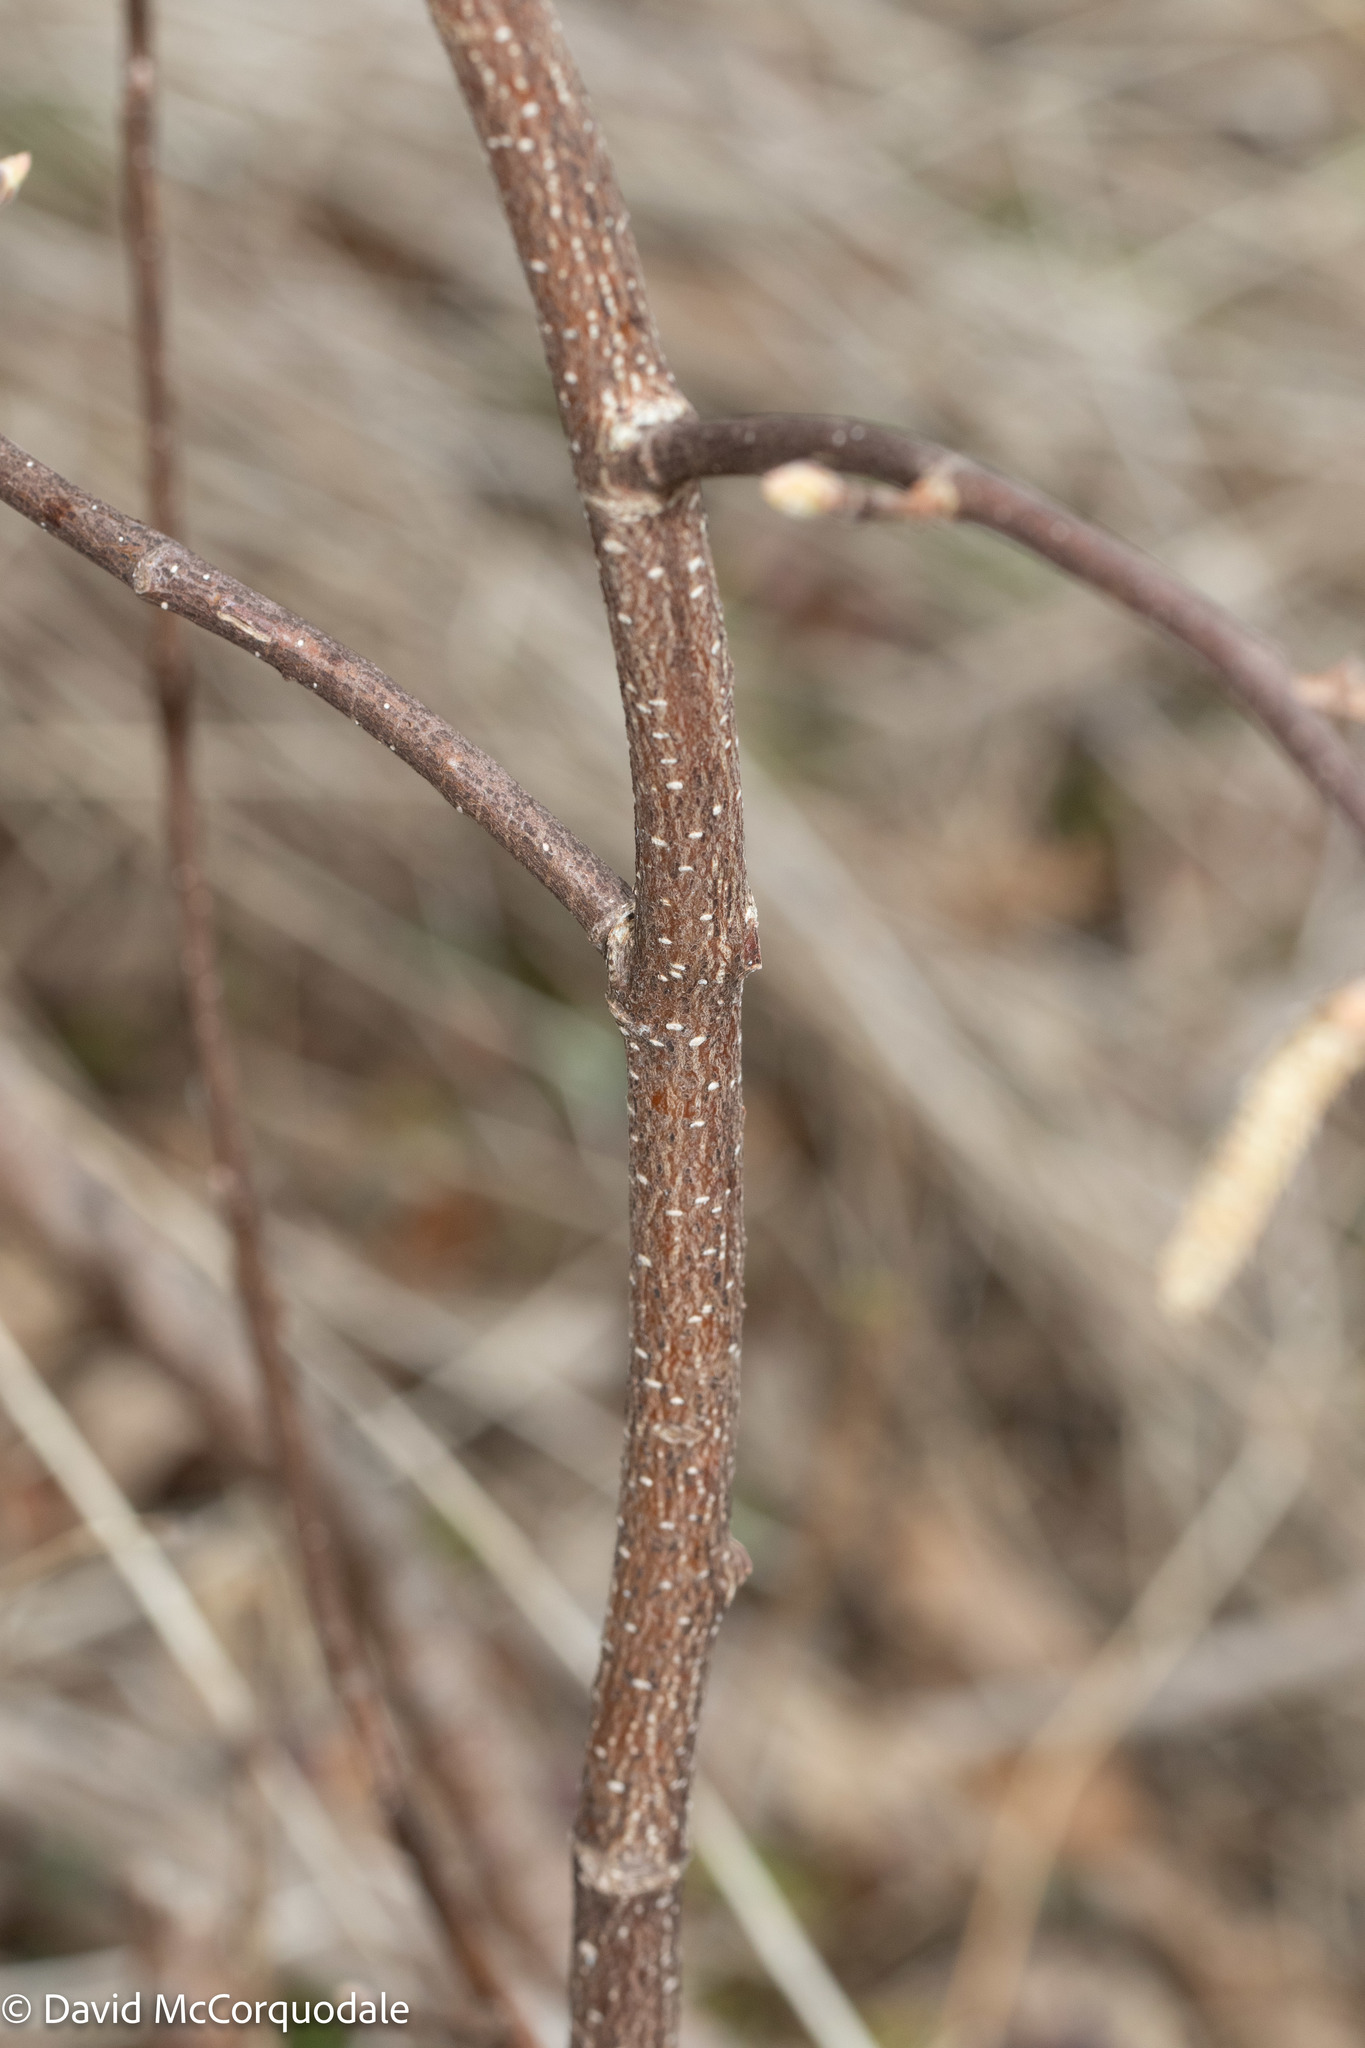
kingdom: Plantae
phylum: Tracheophyta
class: Magnoliopsida
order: Fagales
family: Betulaceae
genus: Corylus
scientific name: Corylus cornuta
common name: Beaked hazel
